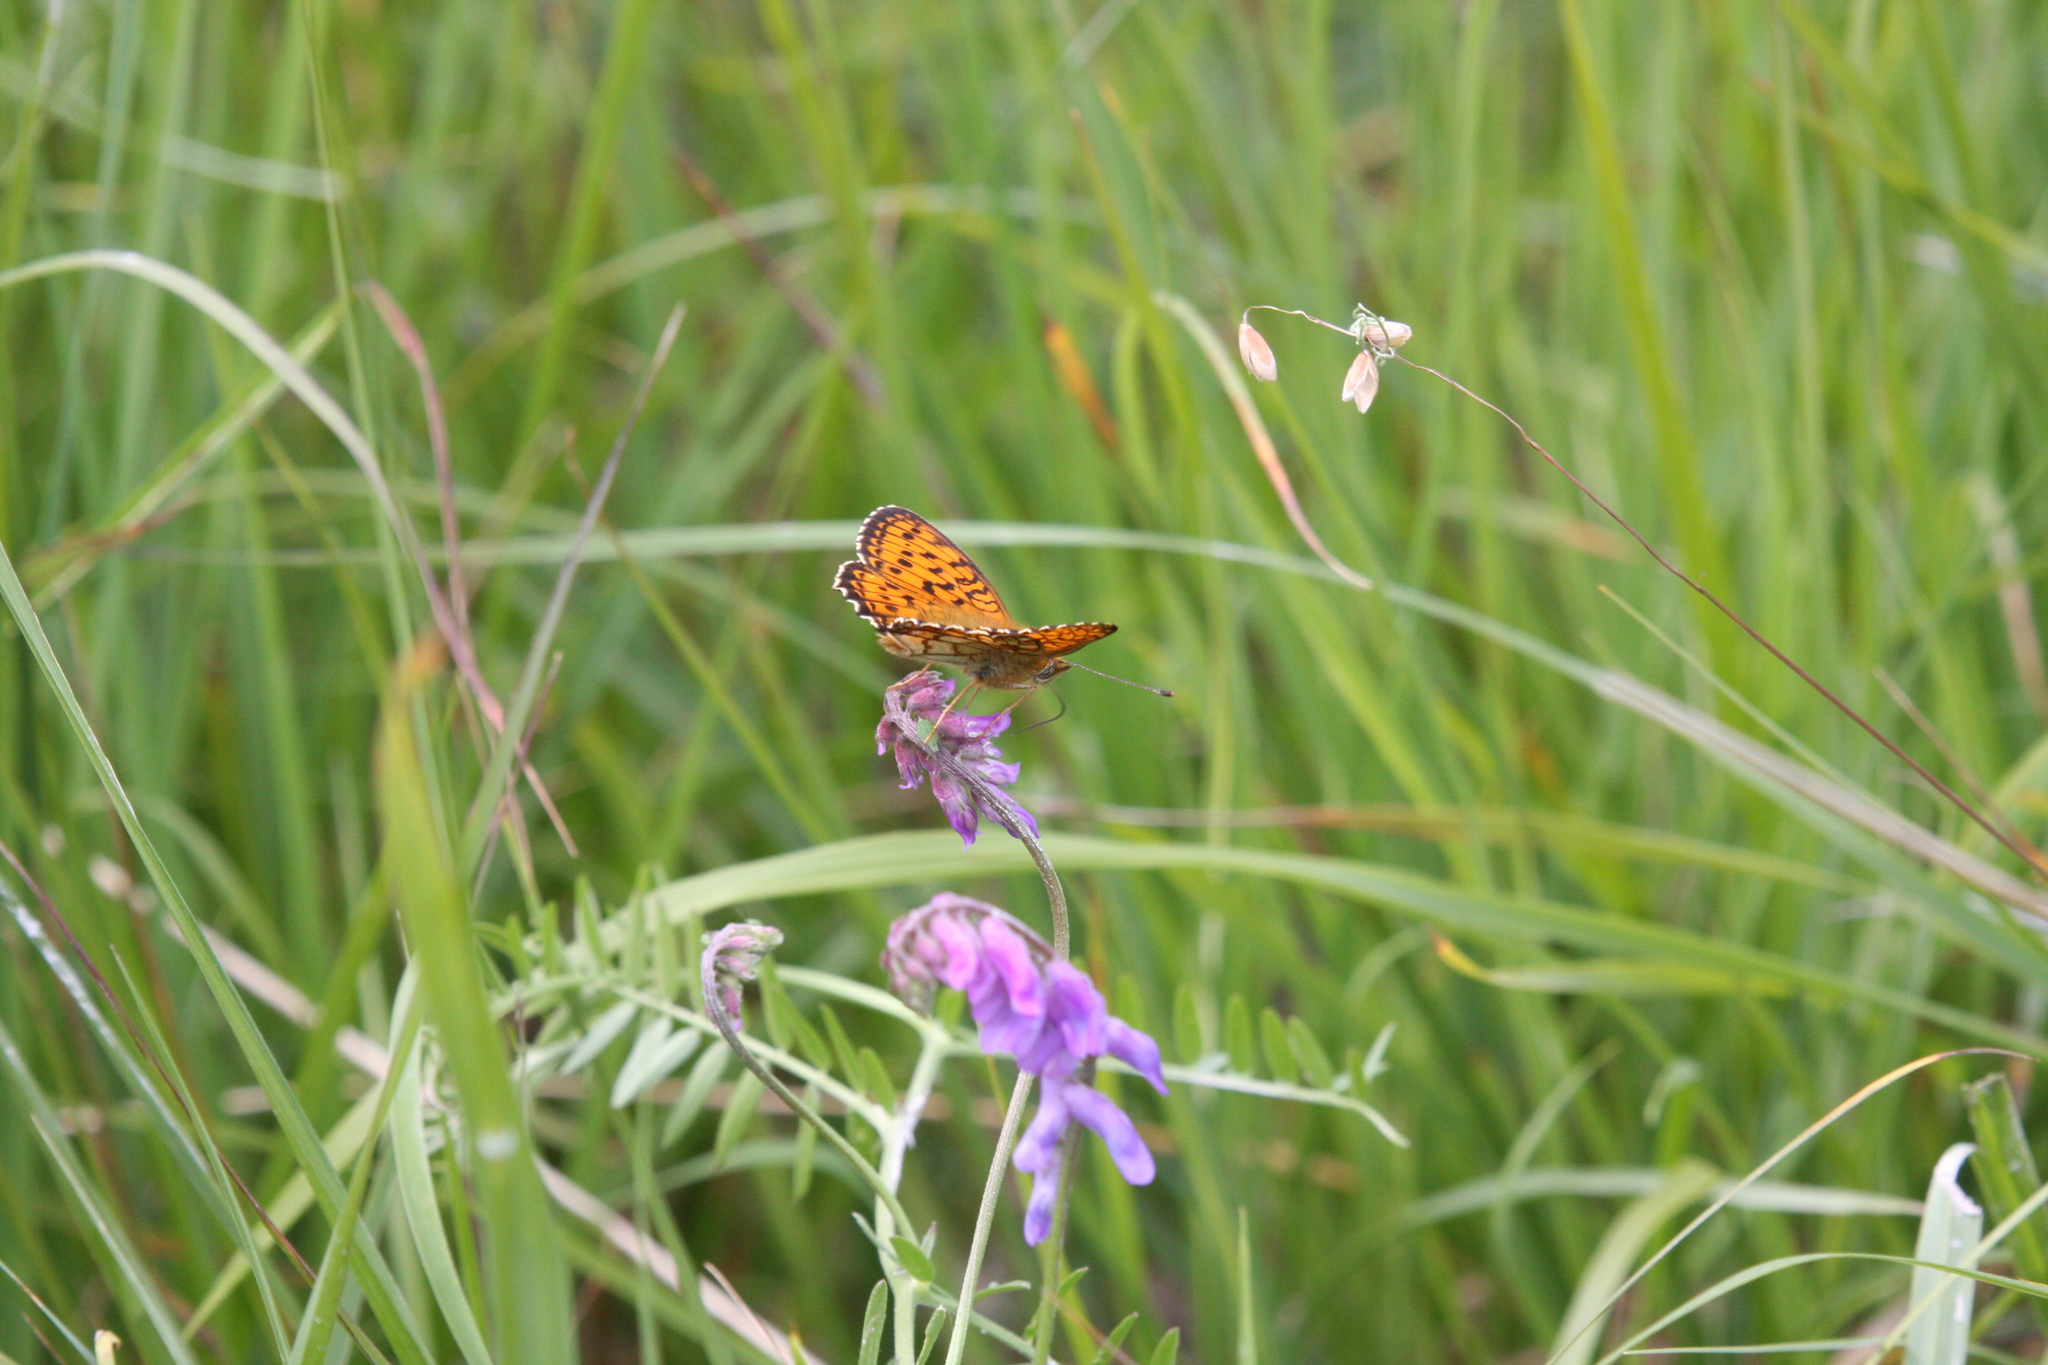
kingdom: Animalia
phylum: Arthropoda
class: Insecta
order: Lepidoptera
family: Nymphalidae
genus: Brenthis
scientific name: Brenthis ino
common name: Lesser marbled fritillary
